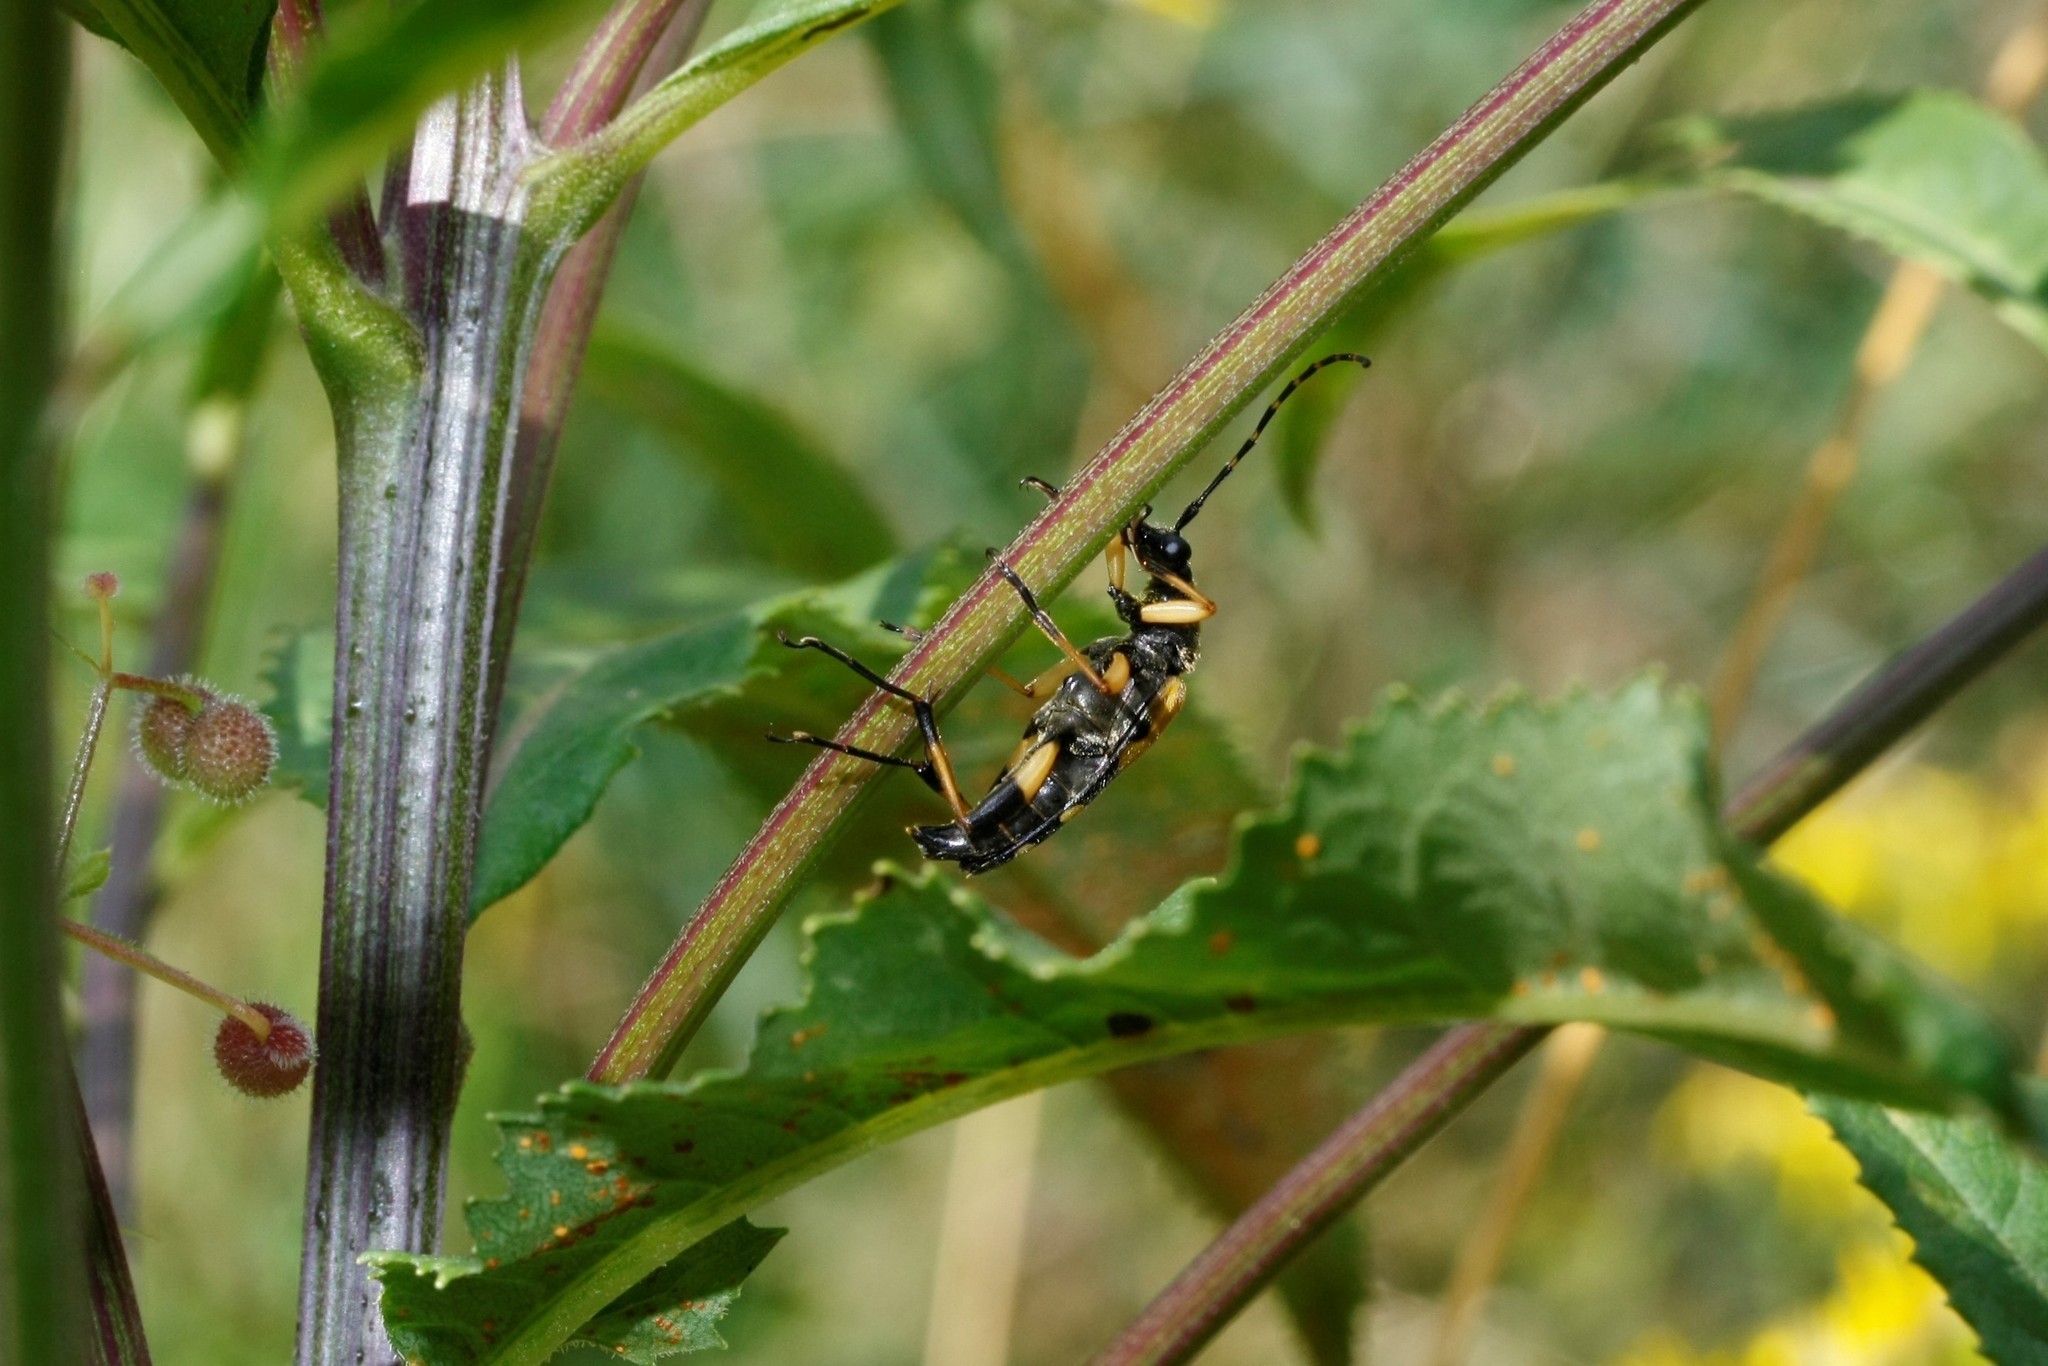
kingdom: Animalia
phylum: Arthropoda
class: Insecta
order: Coleoptera
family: Cerambycidae
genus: Rutpela
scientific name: Rutpela maculata
